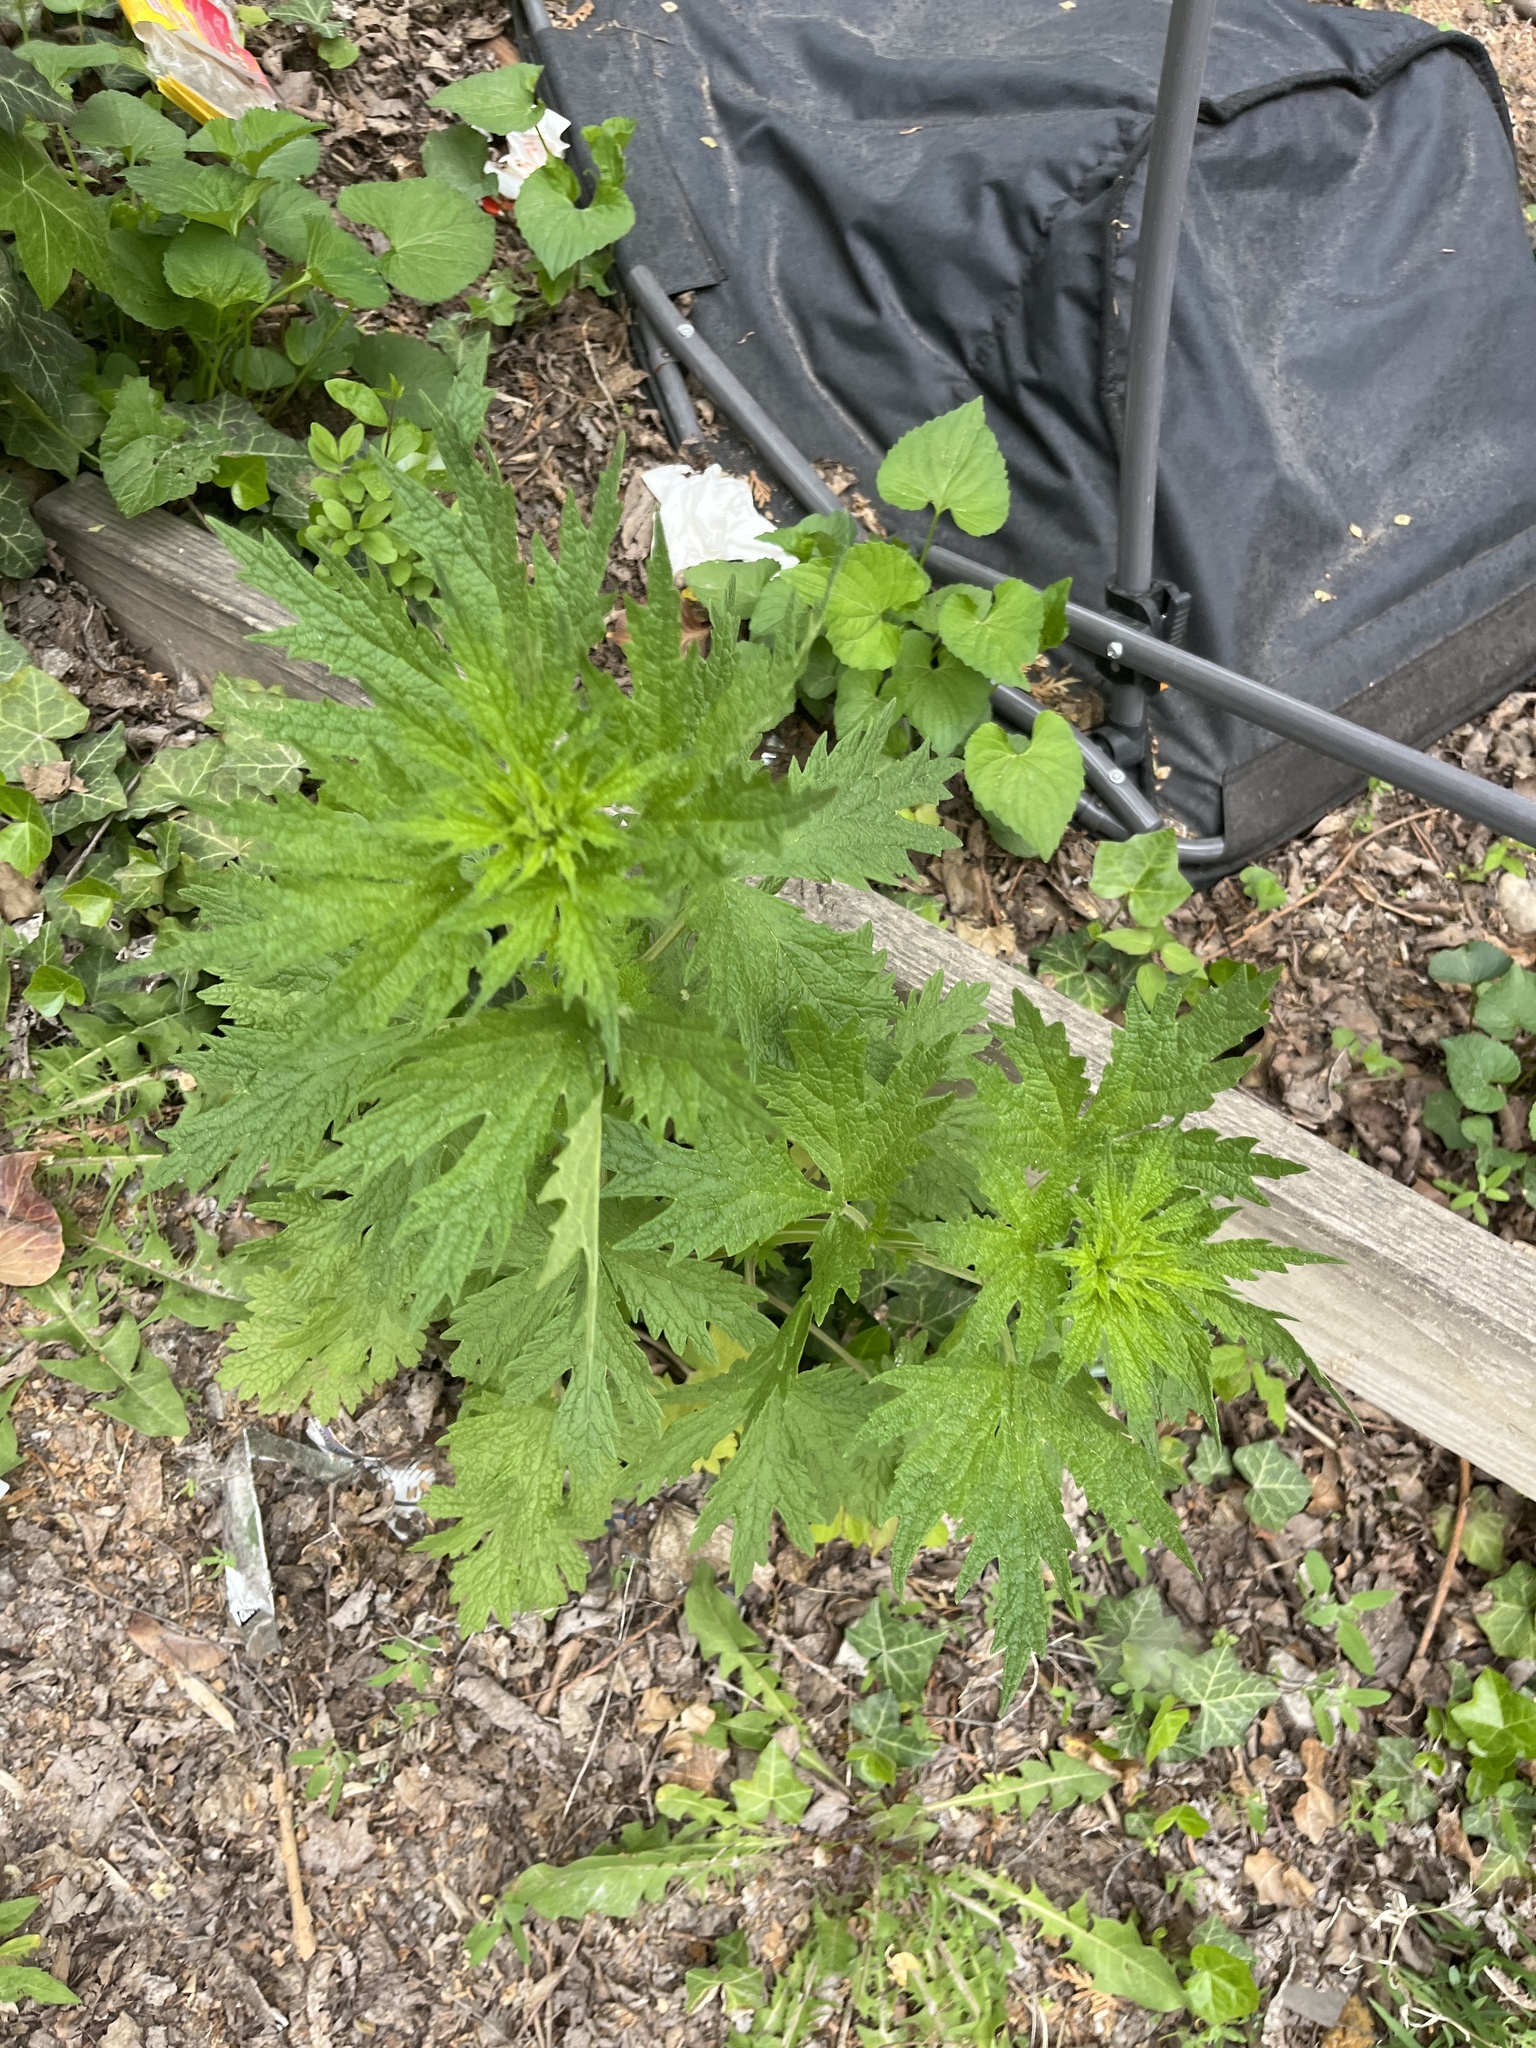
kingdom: Plantae
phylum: Tracheophyta
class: Magnoliopsida
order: Lamiales
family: Lamiaceae
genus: Leonurus
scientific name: Leonurus cardiaca
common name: Motherwort
